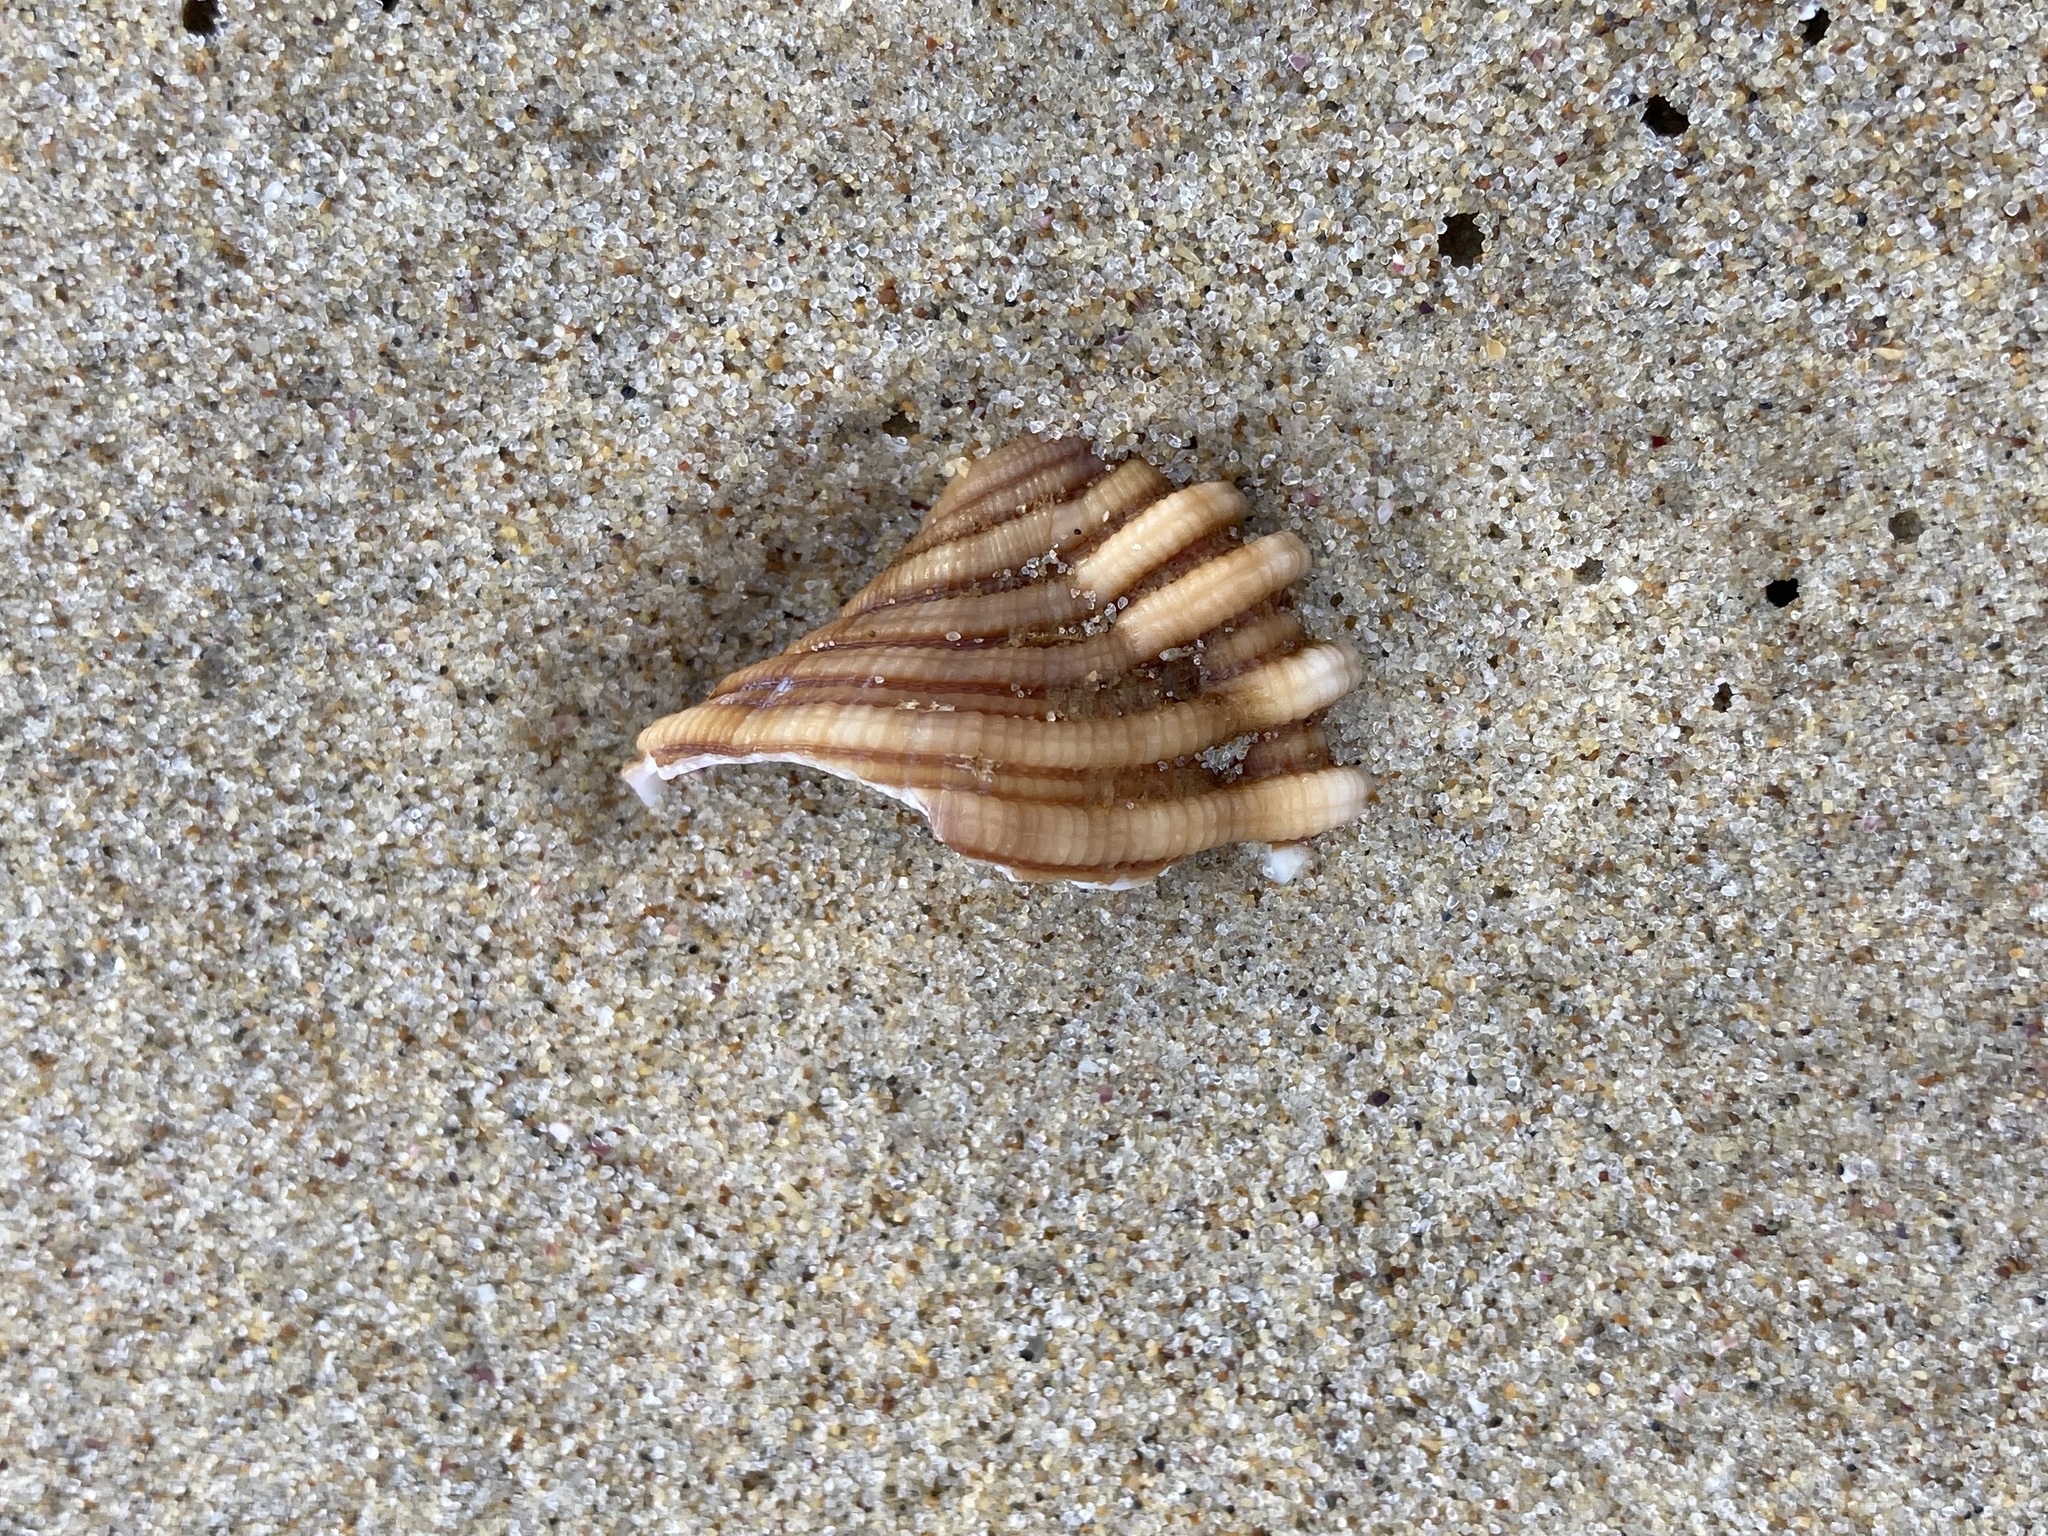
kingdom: Animalia
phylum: Mollusca
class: Gastropoda
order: Littorinimorpha
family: Cymatiidae
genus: Cabestana
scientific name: Cabestana spengleri
